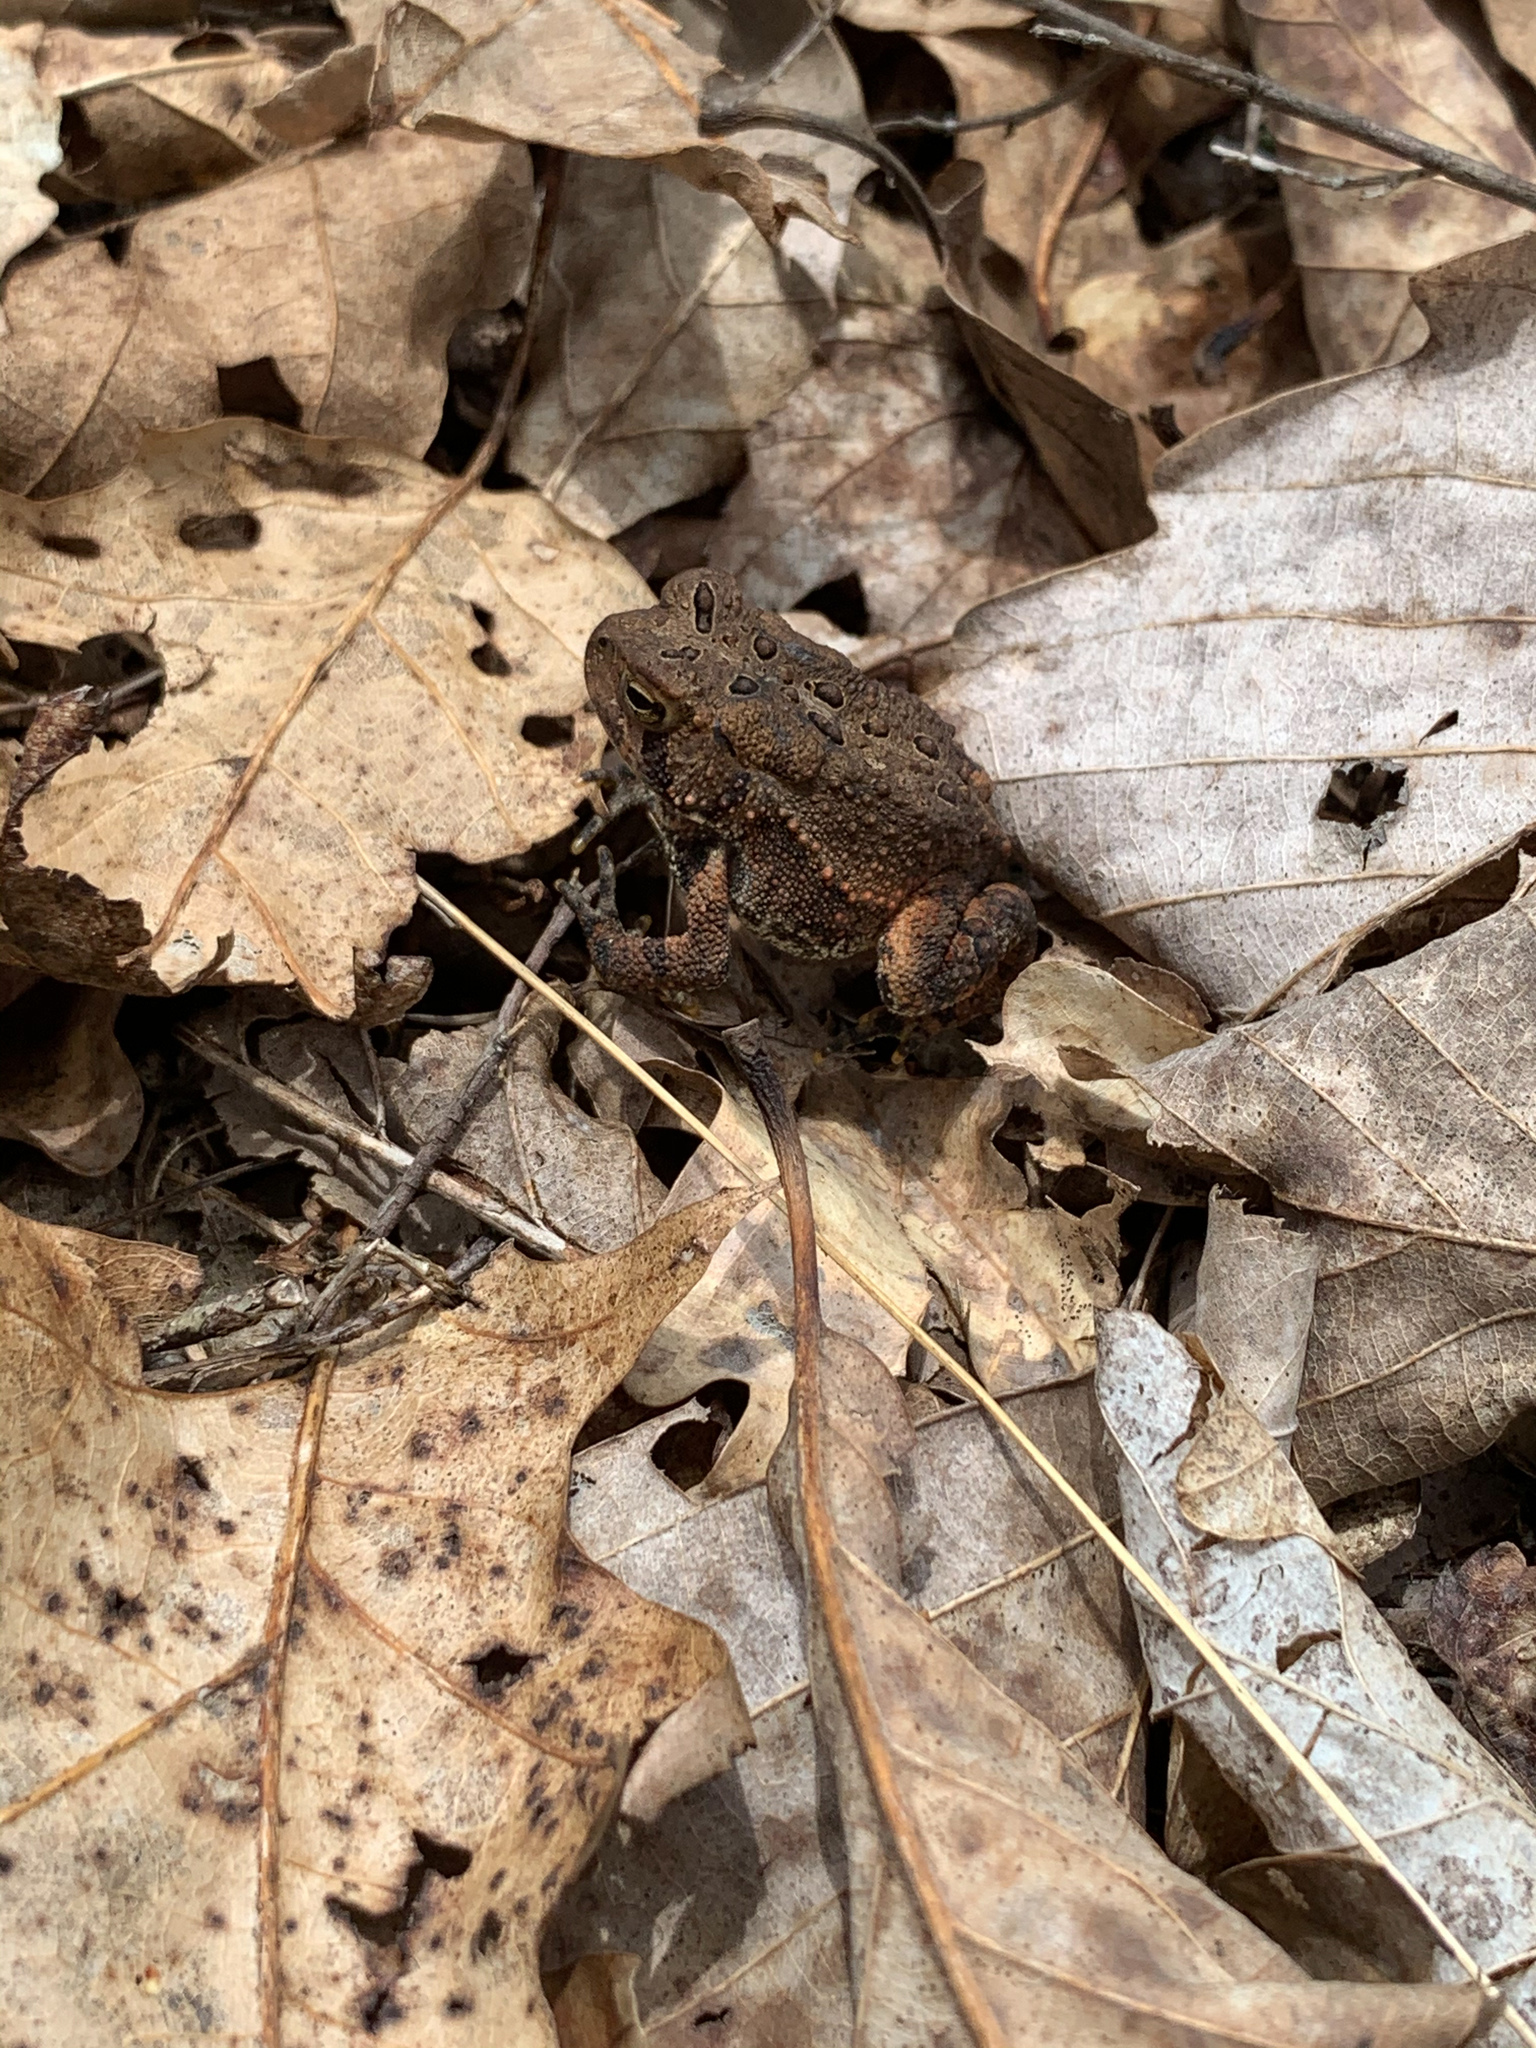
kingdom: Animalia
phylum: Chordata
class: Amphibia
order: Anura
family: Bufonidae
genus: Anaxyrus
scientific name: Anaxyrus americanus
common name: American toad
